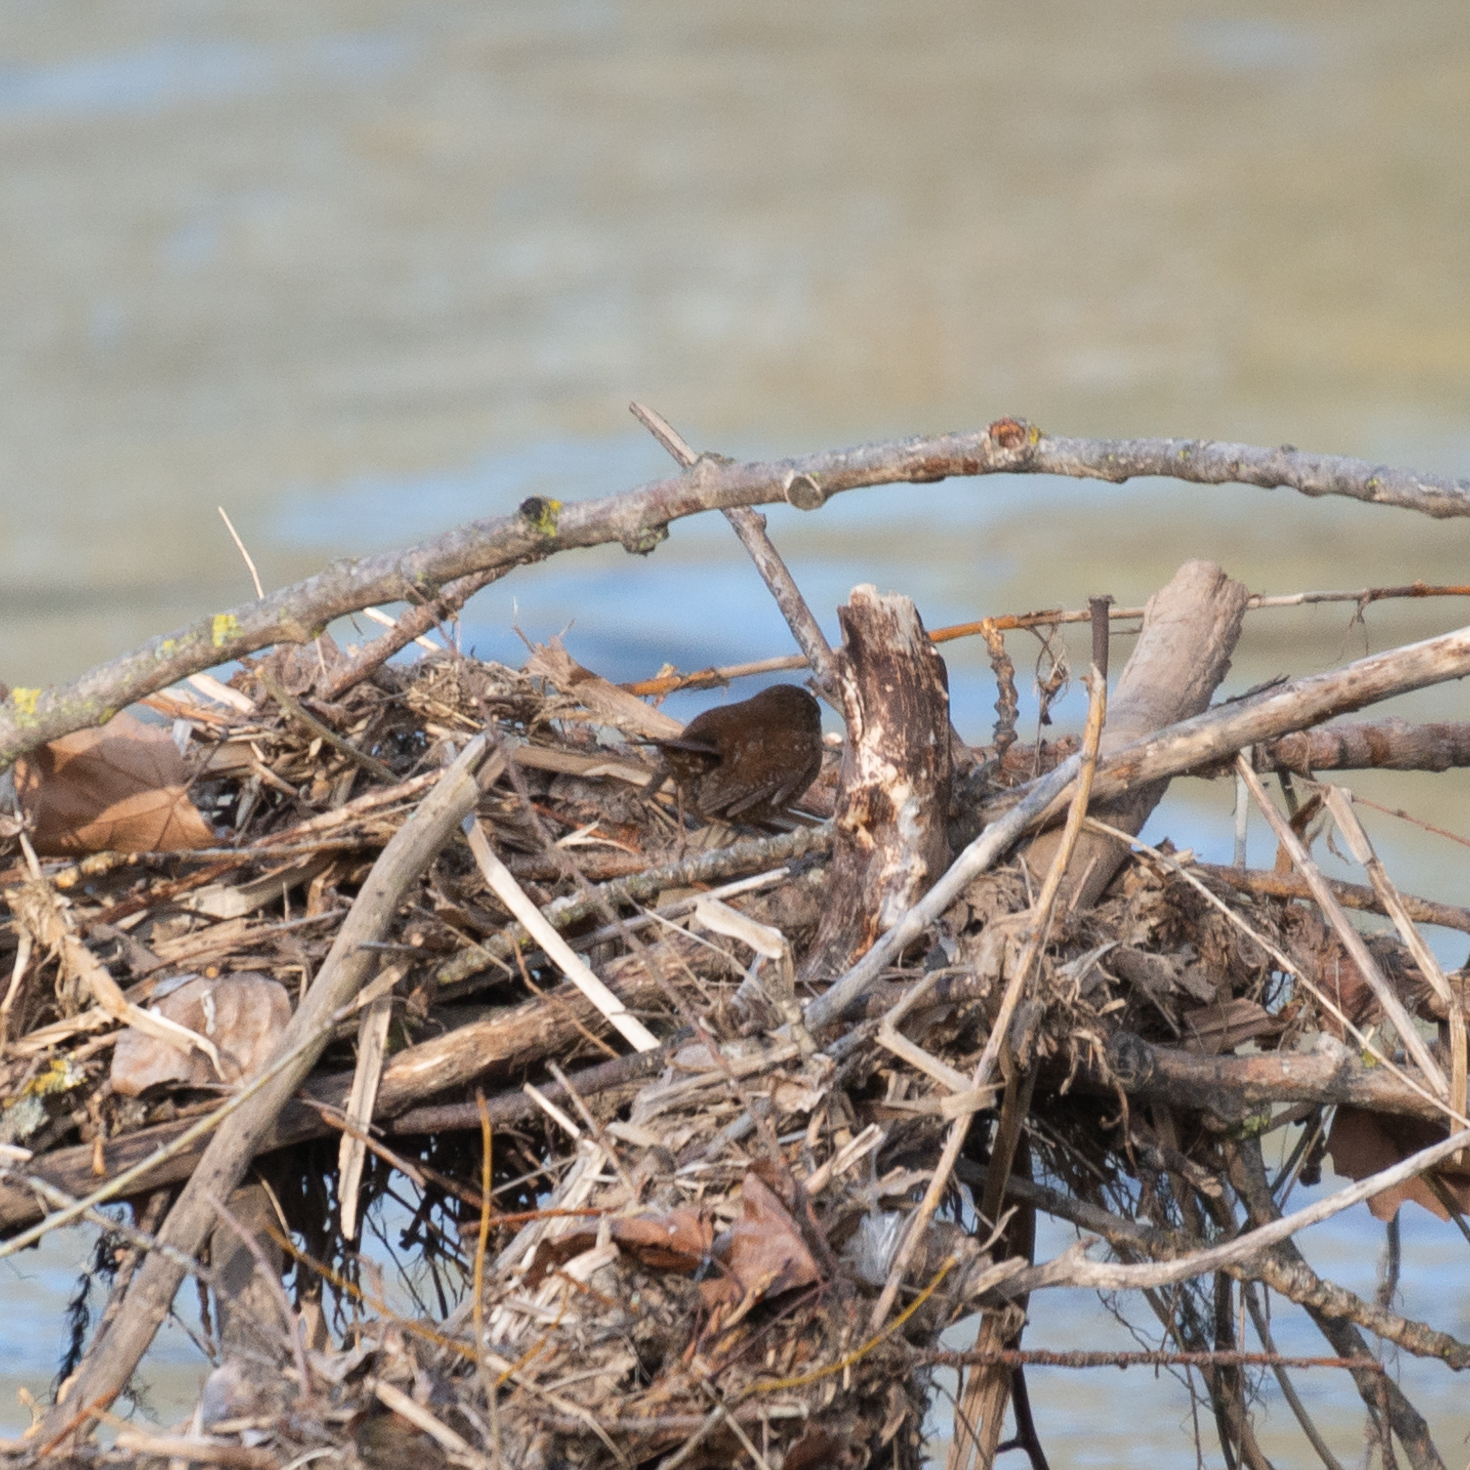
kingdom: Animalia
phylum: Chordata
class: Aves
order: Passeriformes
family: Troglodytidae
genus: Troglodytes
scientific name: Troglodytes troglodytes
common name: Eurasian wren
